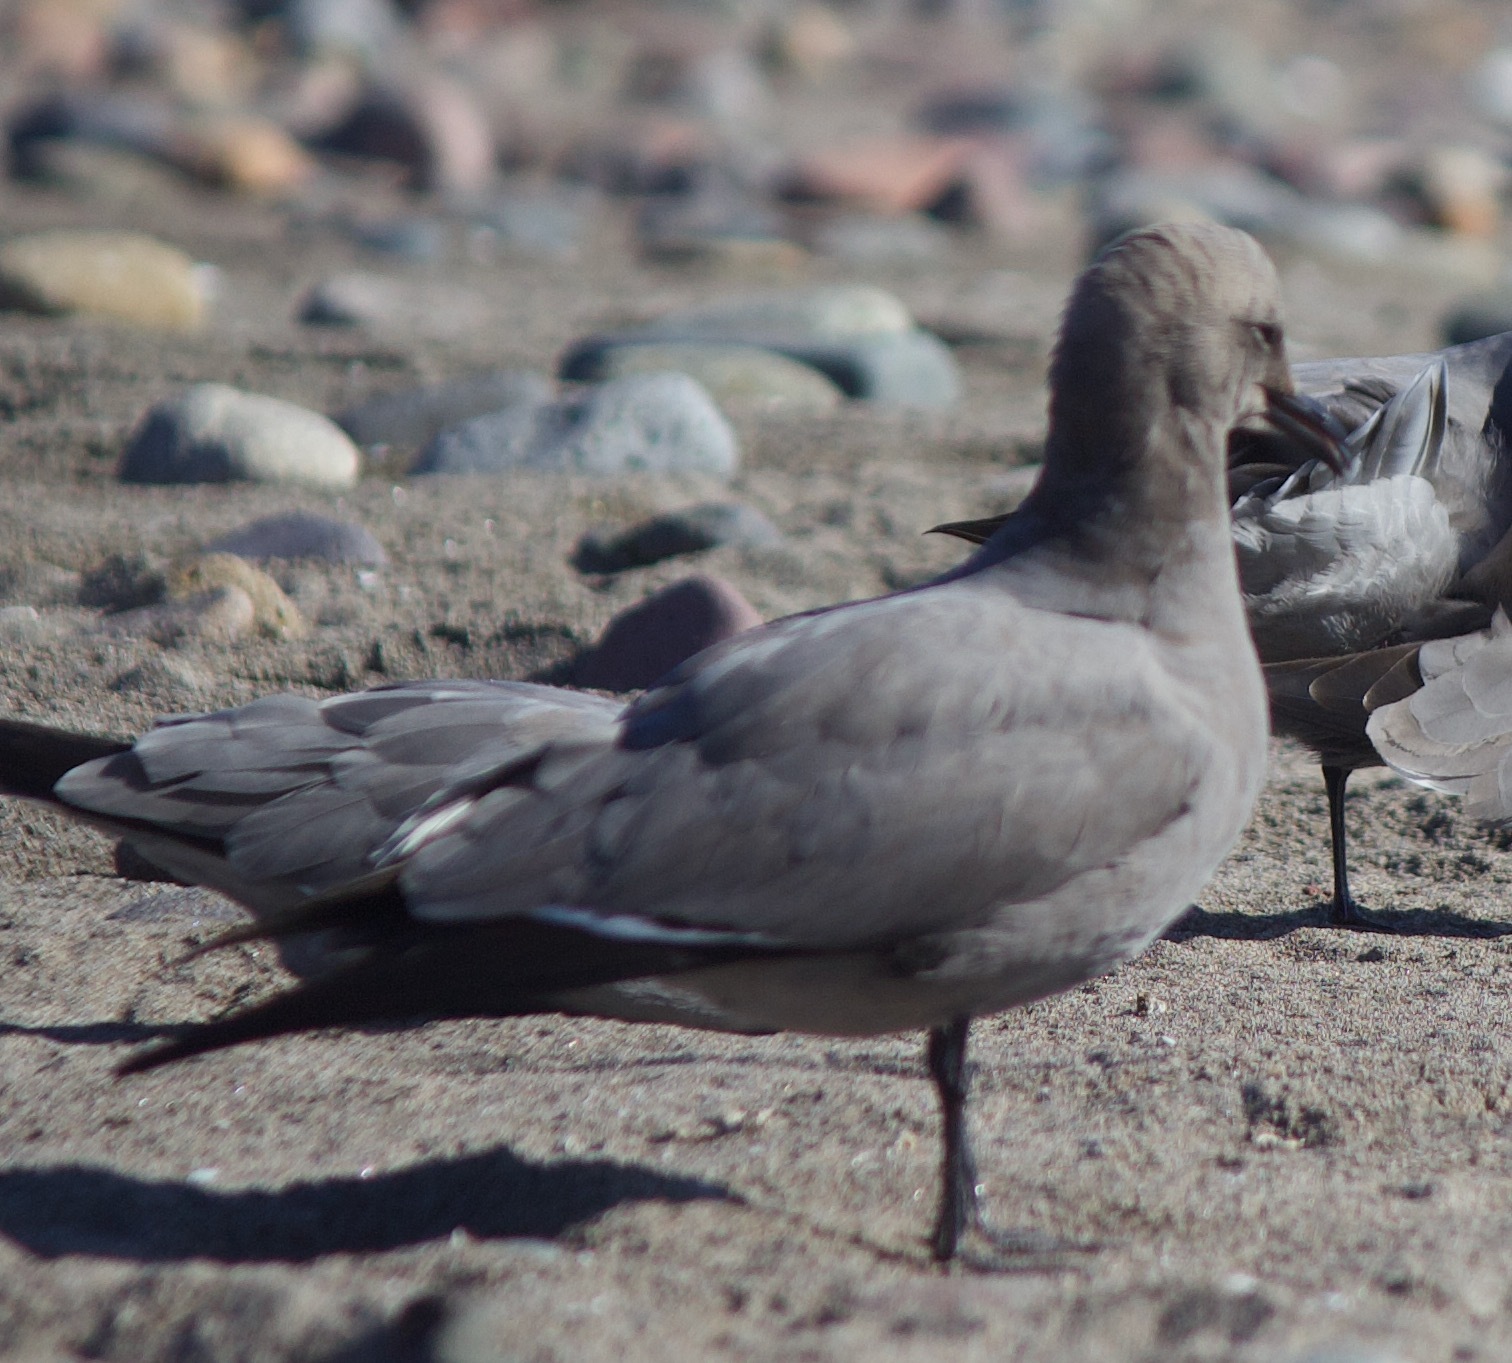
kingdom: Animalia
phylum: Chordata
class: Aves
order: Charadriiformes
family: Laridae
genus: Leucophaeus
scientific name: Leucophaeus modestus
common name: Gray gull
